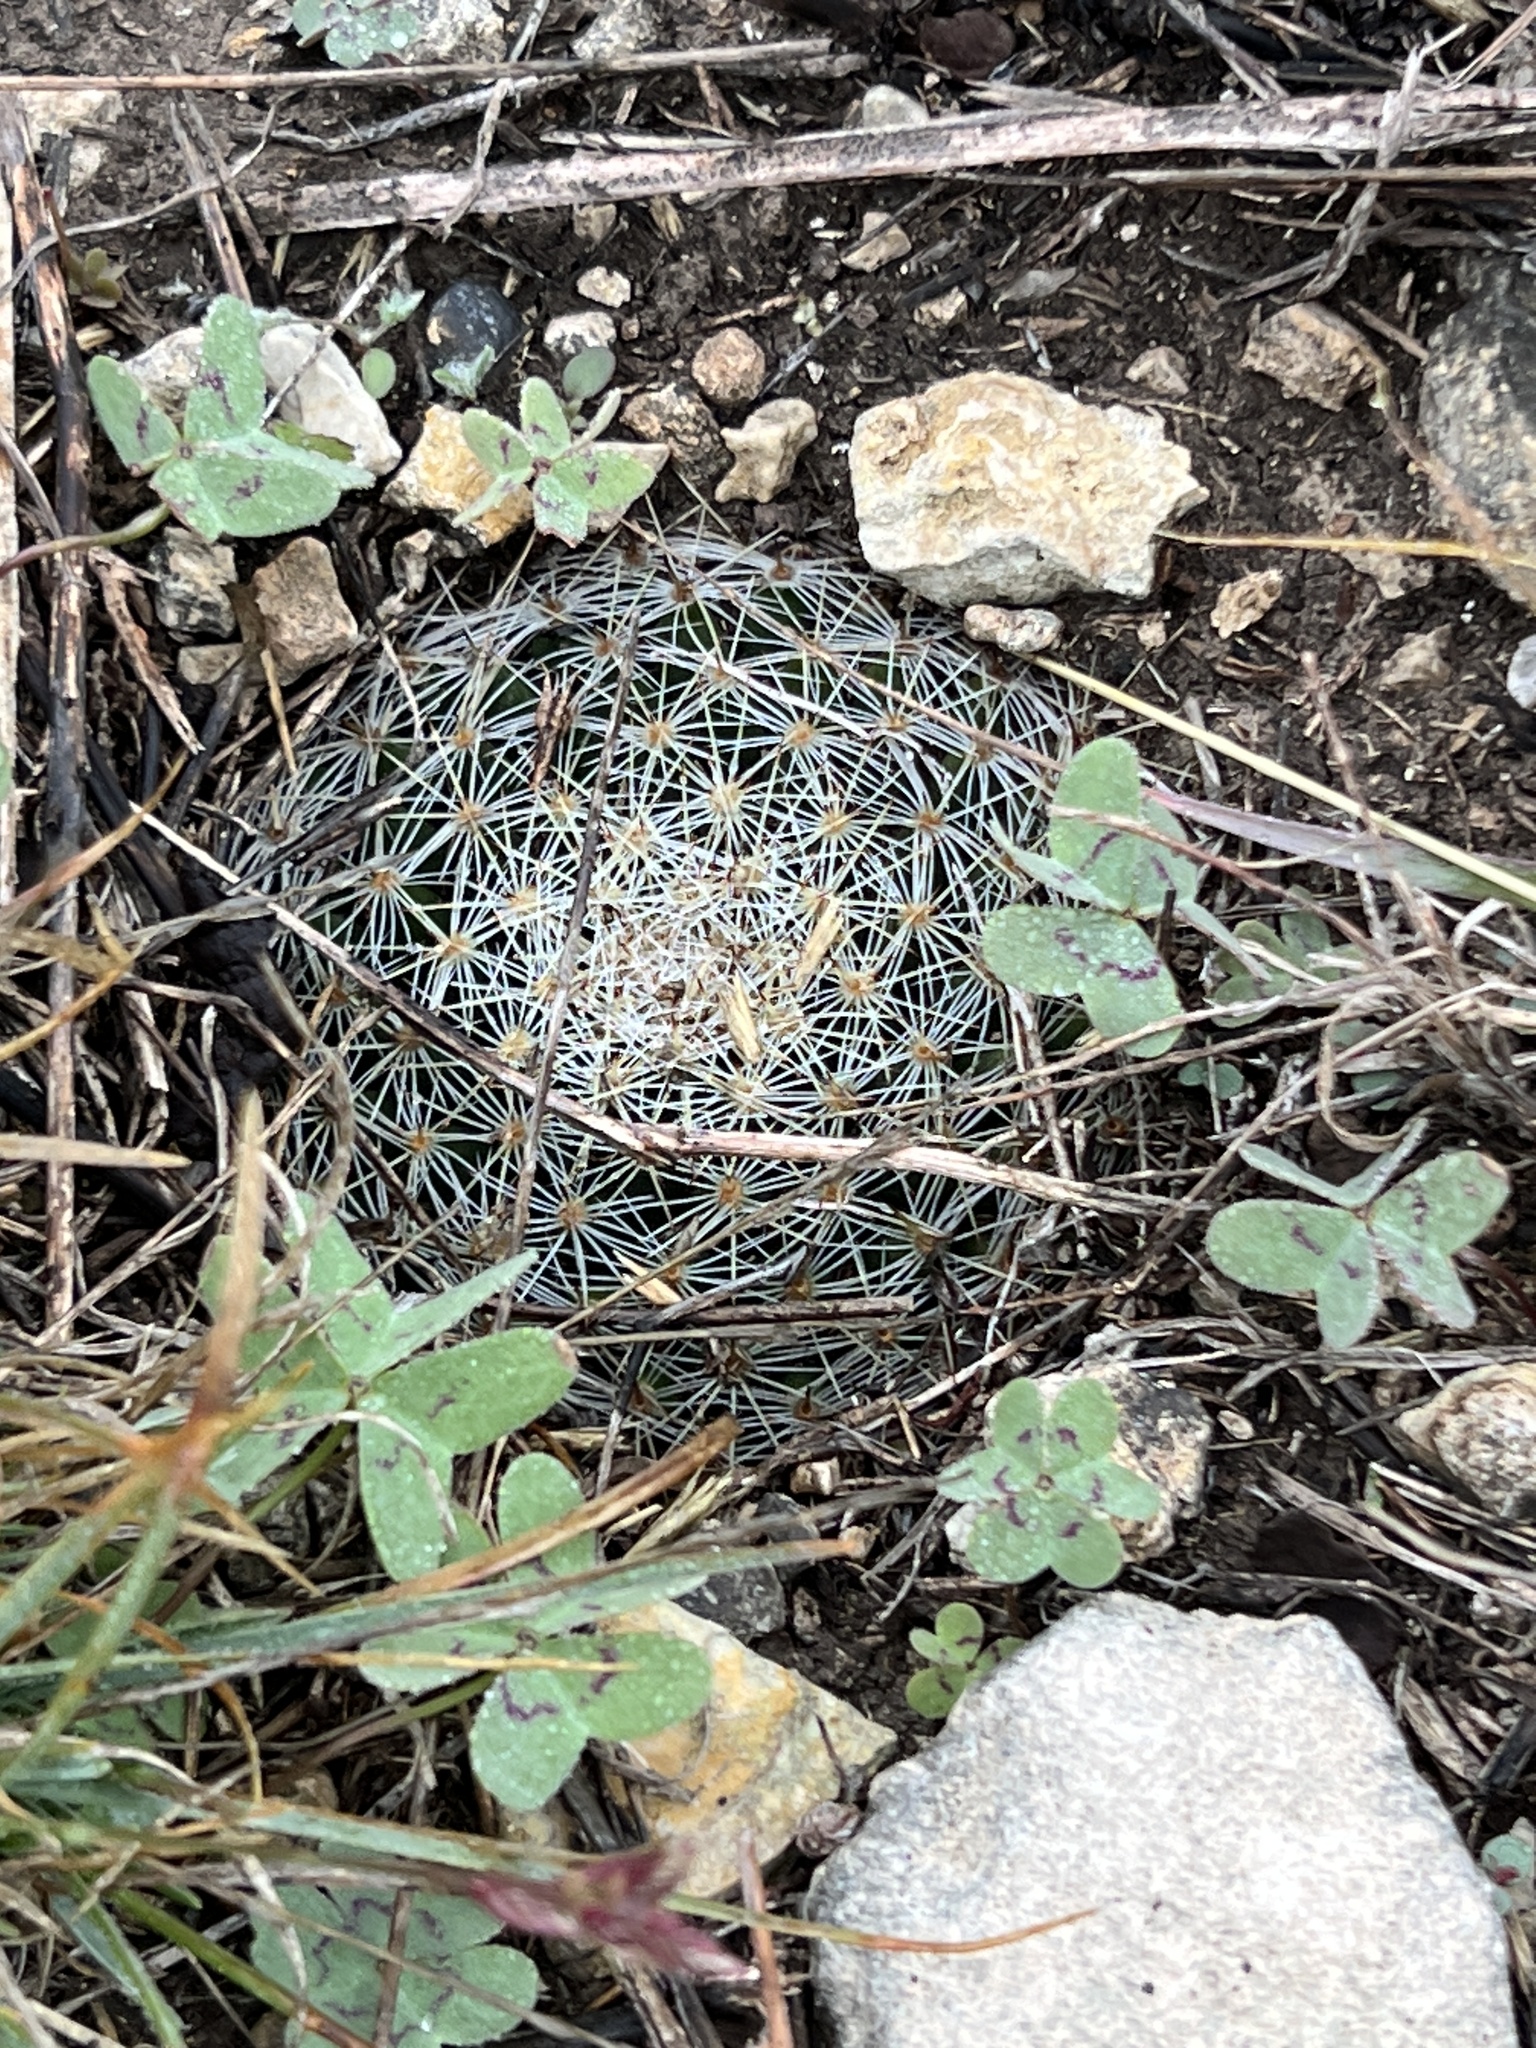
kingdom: Plantae
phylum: Tracheophyta
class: Magnoliopsida
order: Caryophyllales
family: Cactaceae
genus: Mammillaria
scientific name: Mammillaria heyderi
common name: Little nipple cactus
